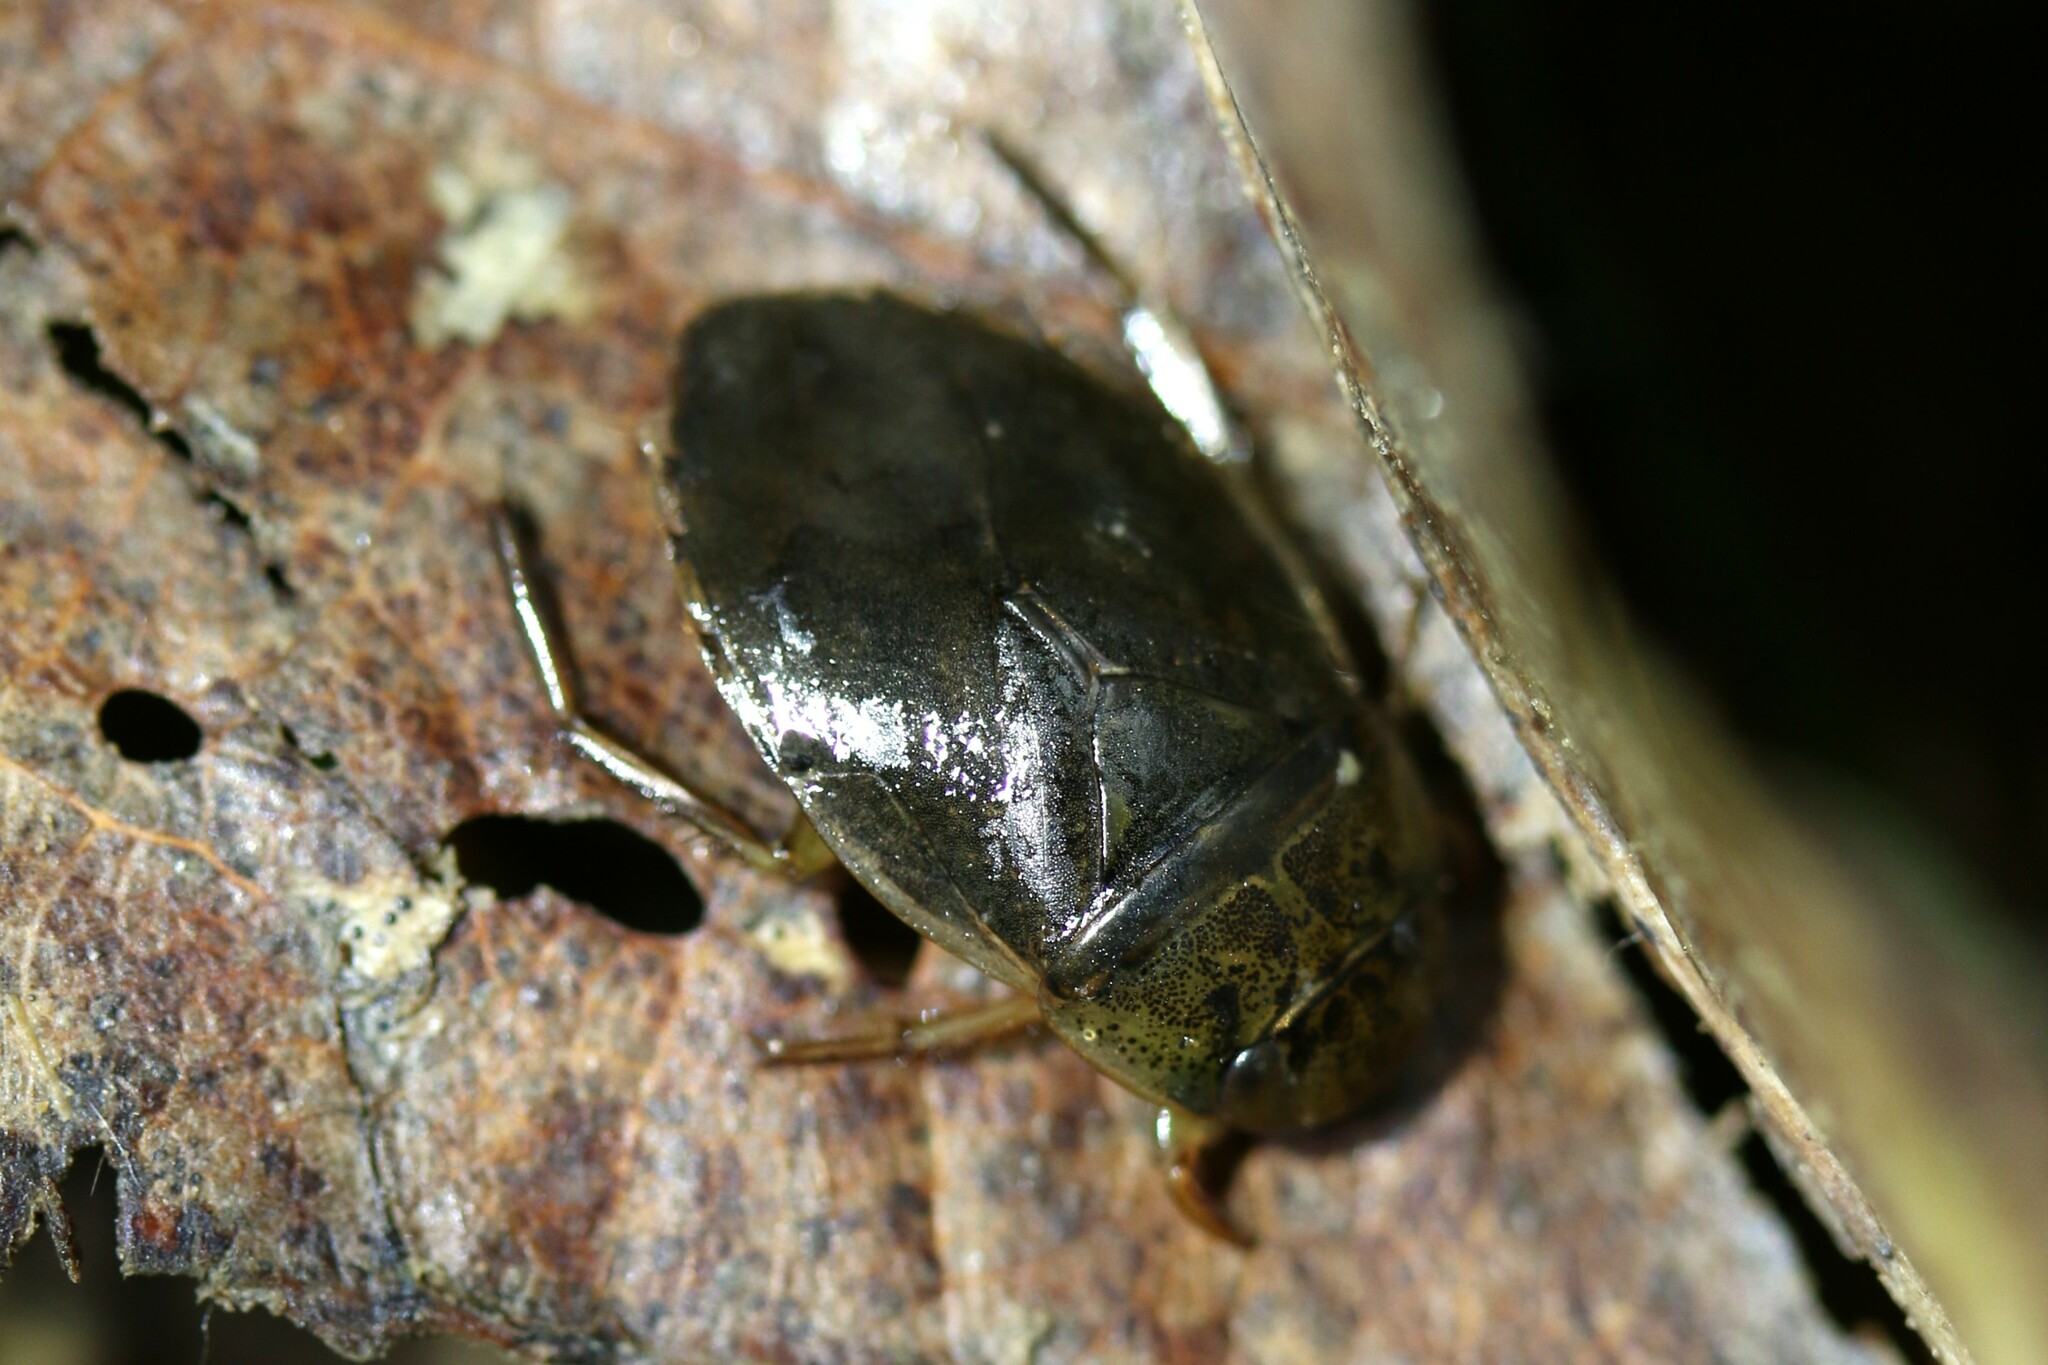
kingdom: Animalia
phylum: Arthropoda
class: Insecta
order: Hemiptera
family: Naucoridae
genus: Ilyocoris
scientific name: Ilyocoris cimicoides
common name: Saucer bugs
